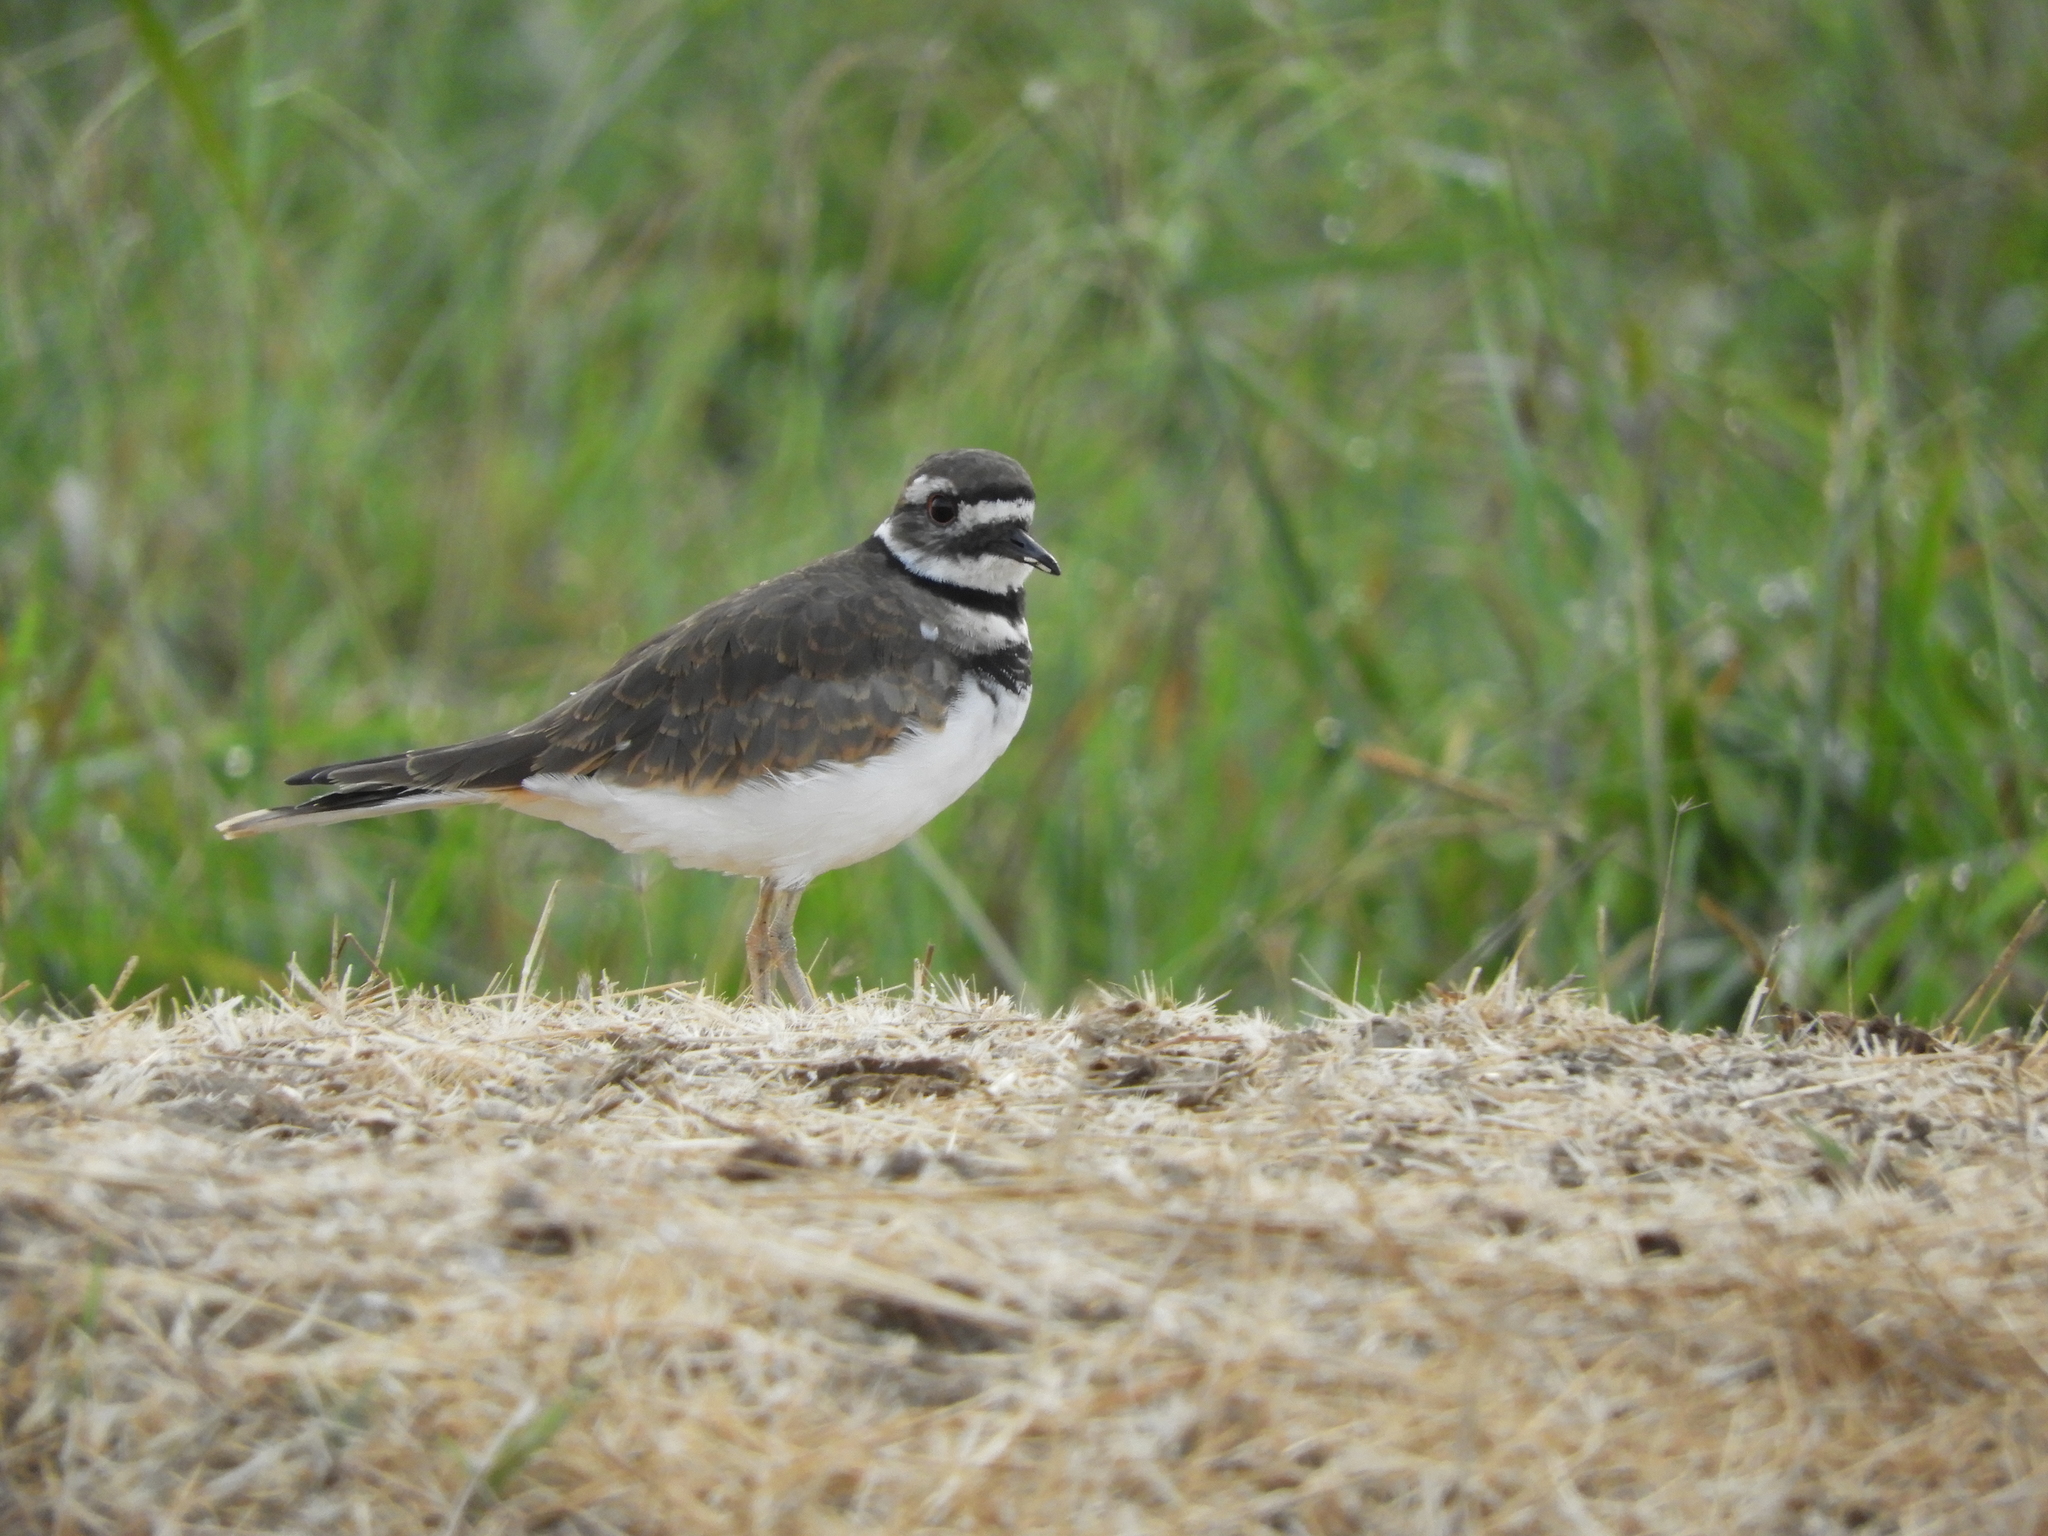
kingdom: Animalia
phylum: Chordata
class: Aves
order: Charadriiformes
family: Charadriidae
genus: Charadrius
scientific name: Charadrius vociferus
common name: Killdeer
